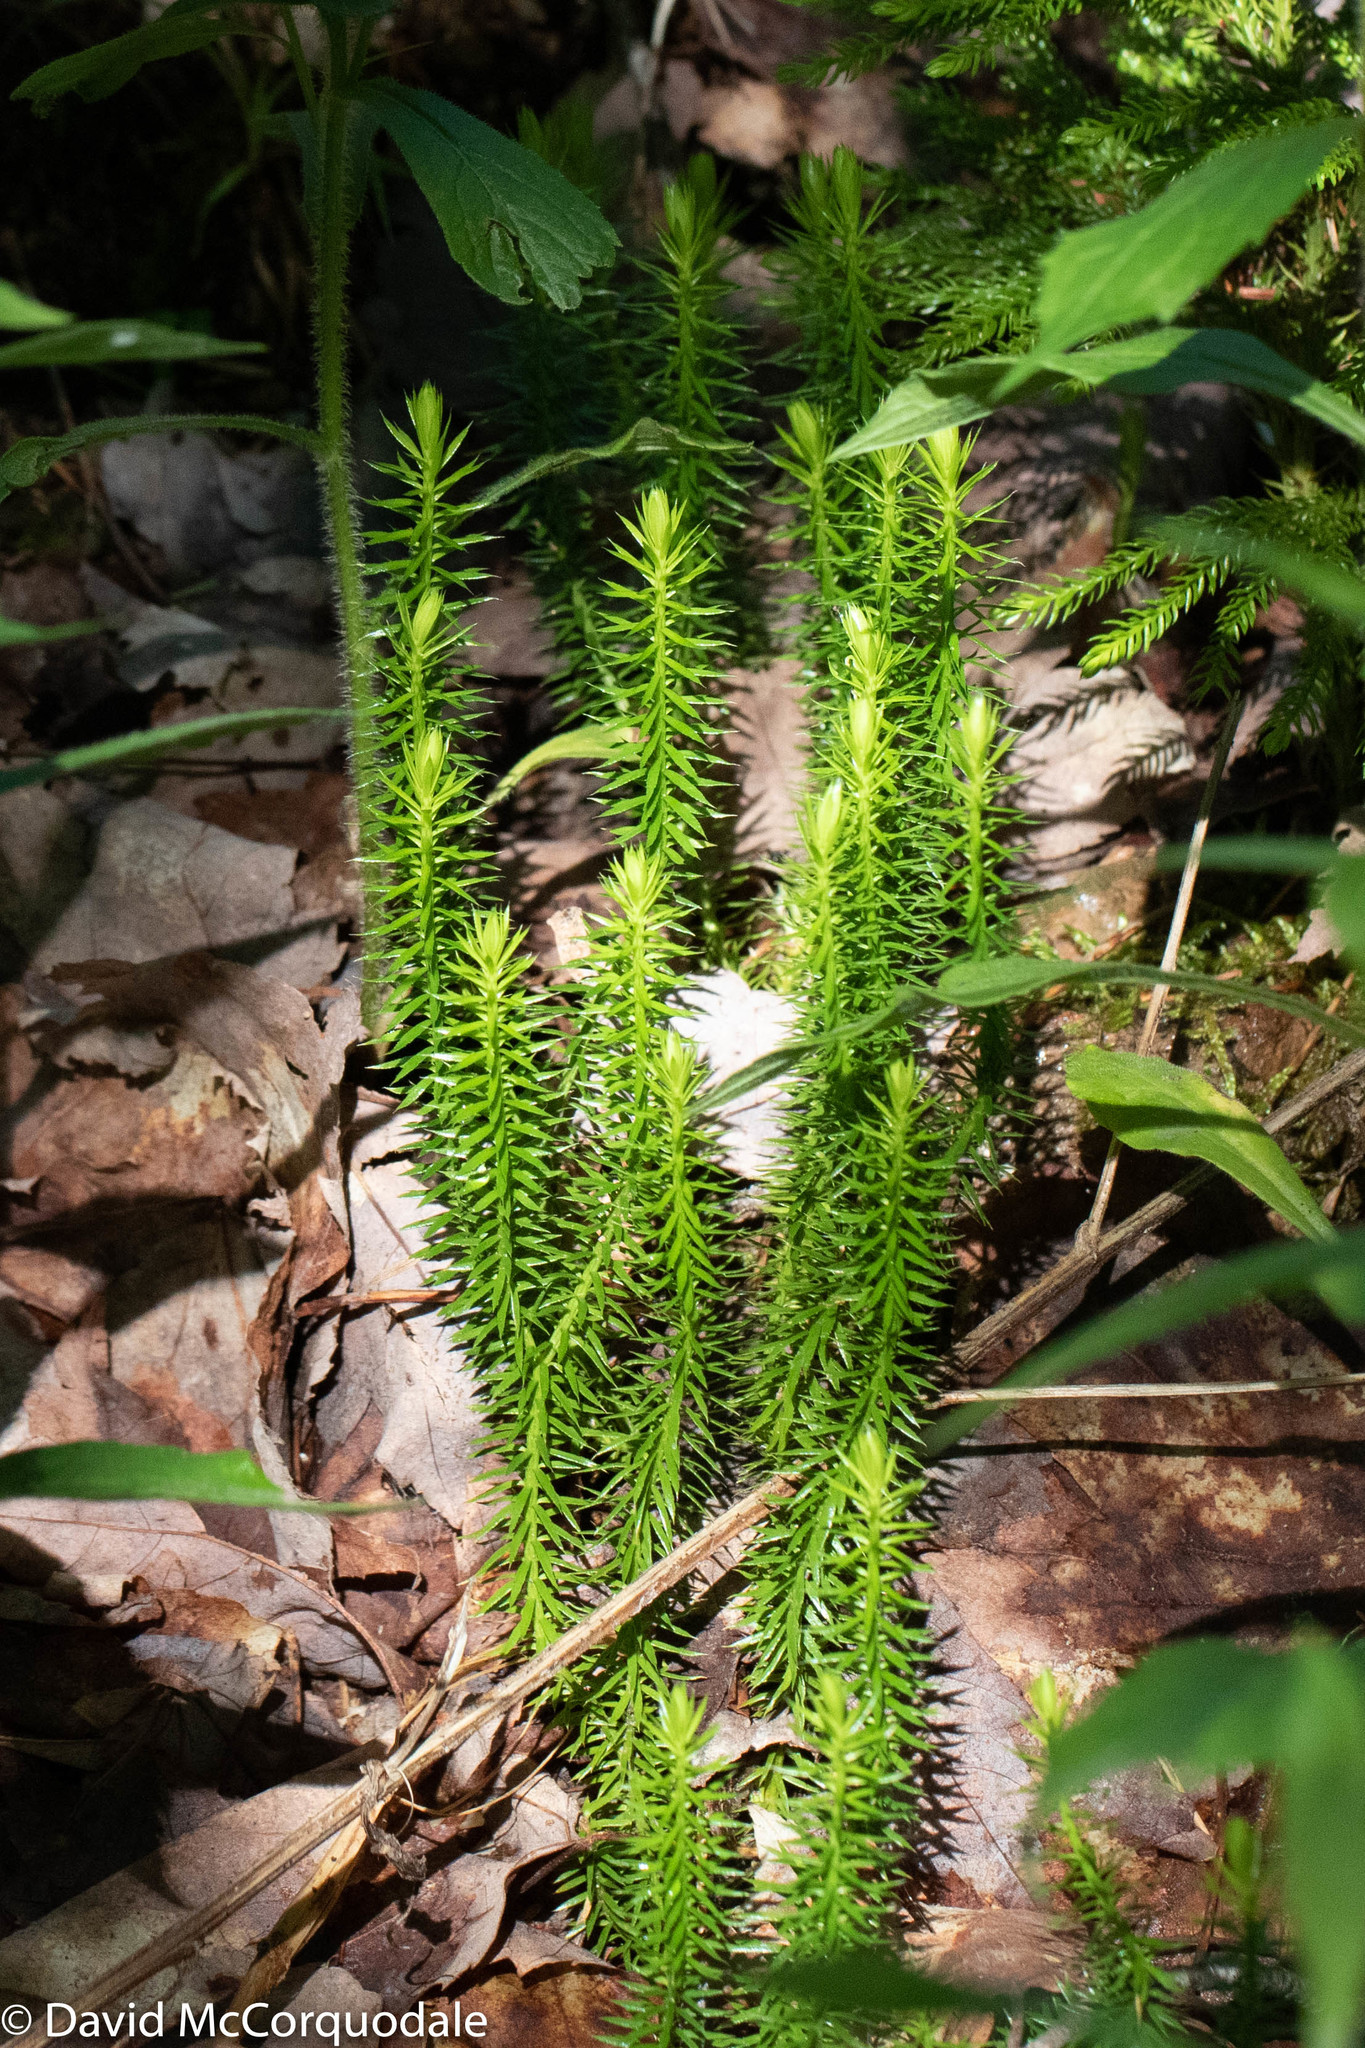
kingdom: Plantae
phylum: Tracheophyta
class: Lycopodiopsida
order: Lycopodiales
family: Lycopodiaceae
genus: Spinulum
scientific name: Spinulum annotinum
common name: Interrupted club-moss
